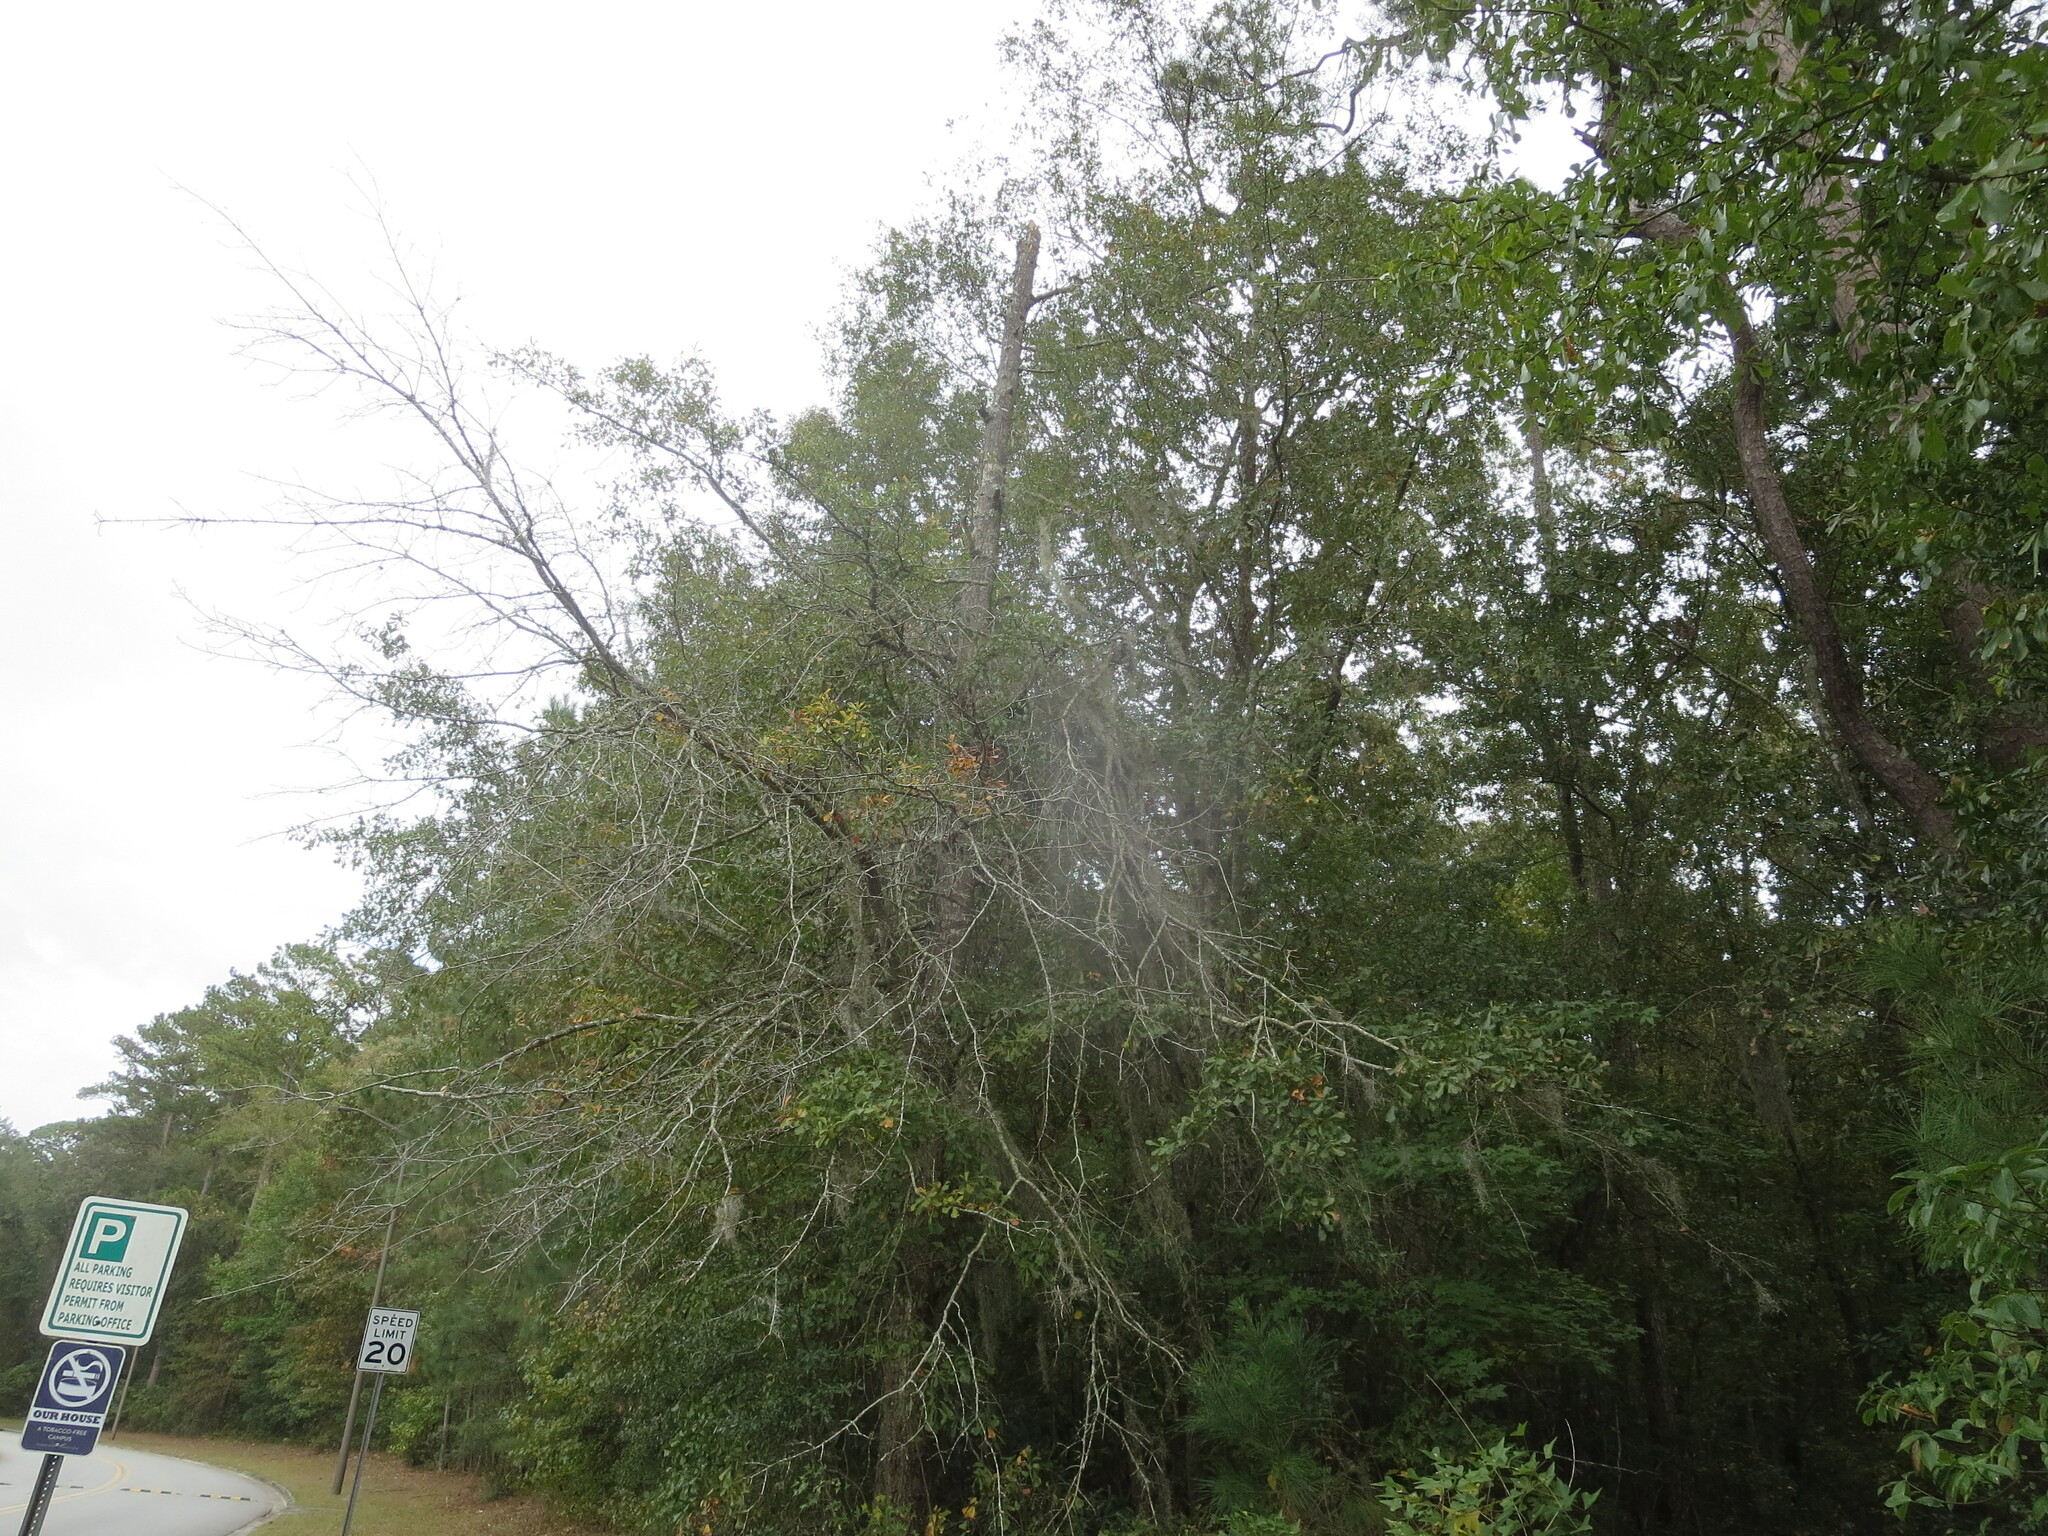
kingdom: Plantae
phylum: Tracheophyta
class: Magnoliopsida
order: Fagales
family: Fagaceae
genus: Quercus
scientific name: Quercus nigra
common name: Water oak
